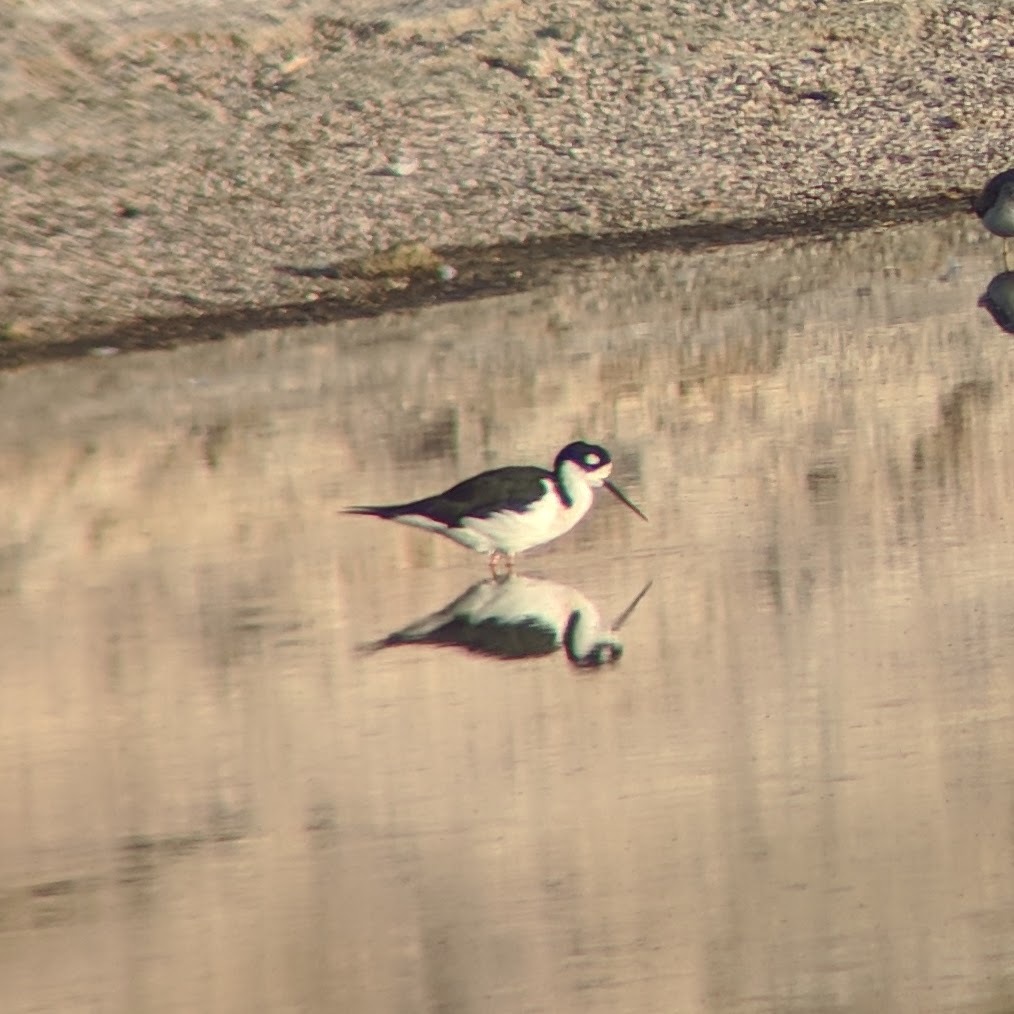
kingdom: Animalia
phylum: Chordata
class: Aves
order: Charadriiformes
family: Recurvirostridae
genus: Himantopus
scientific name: Himantopus mexicanus
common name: Black-necked stilt
